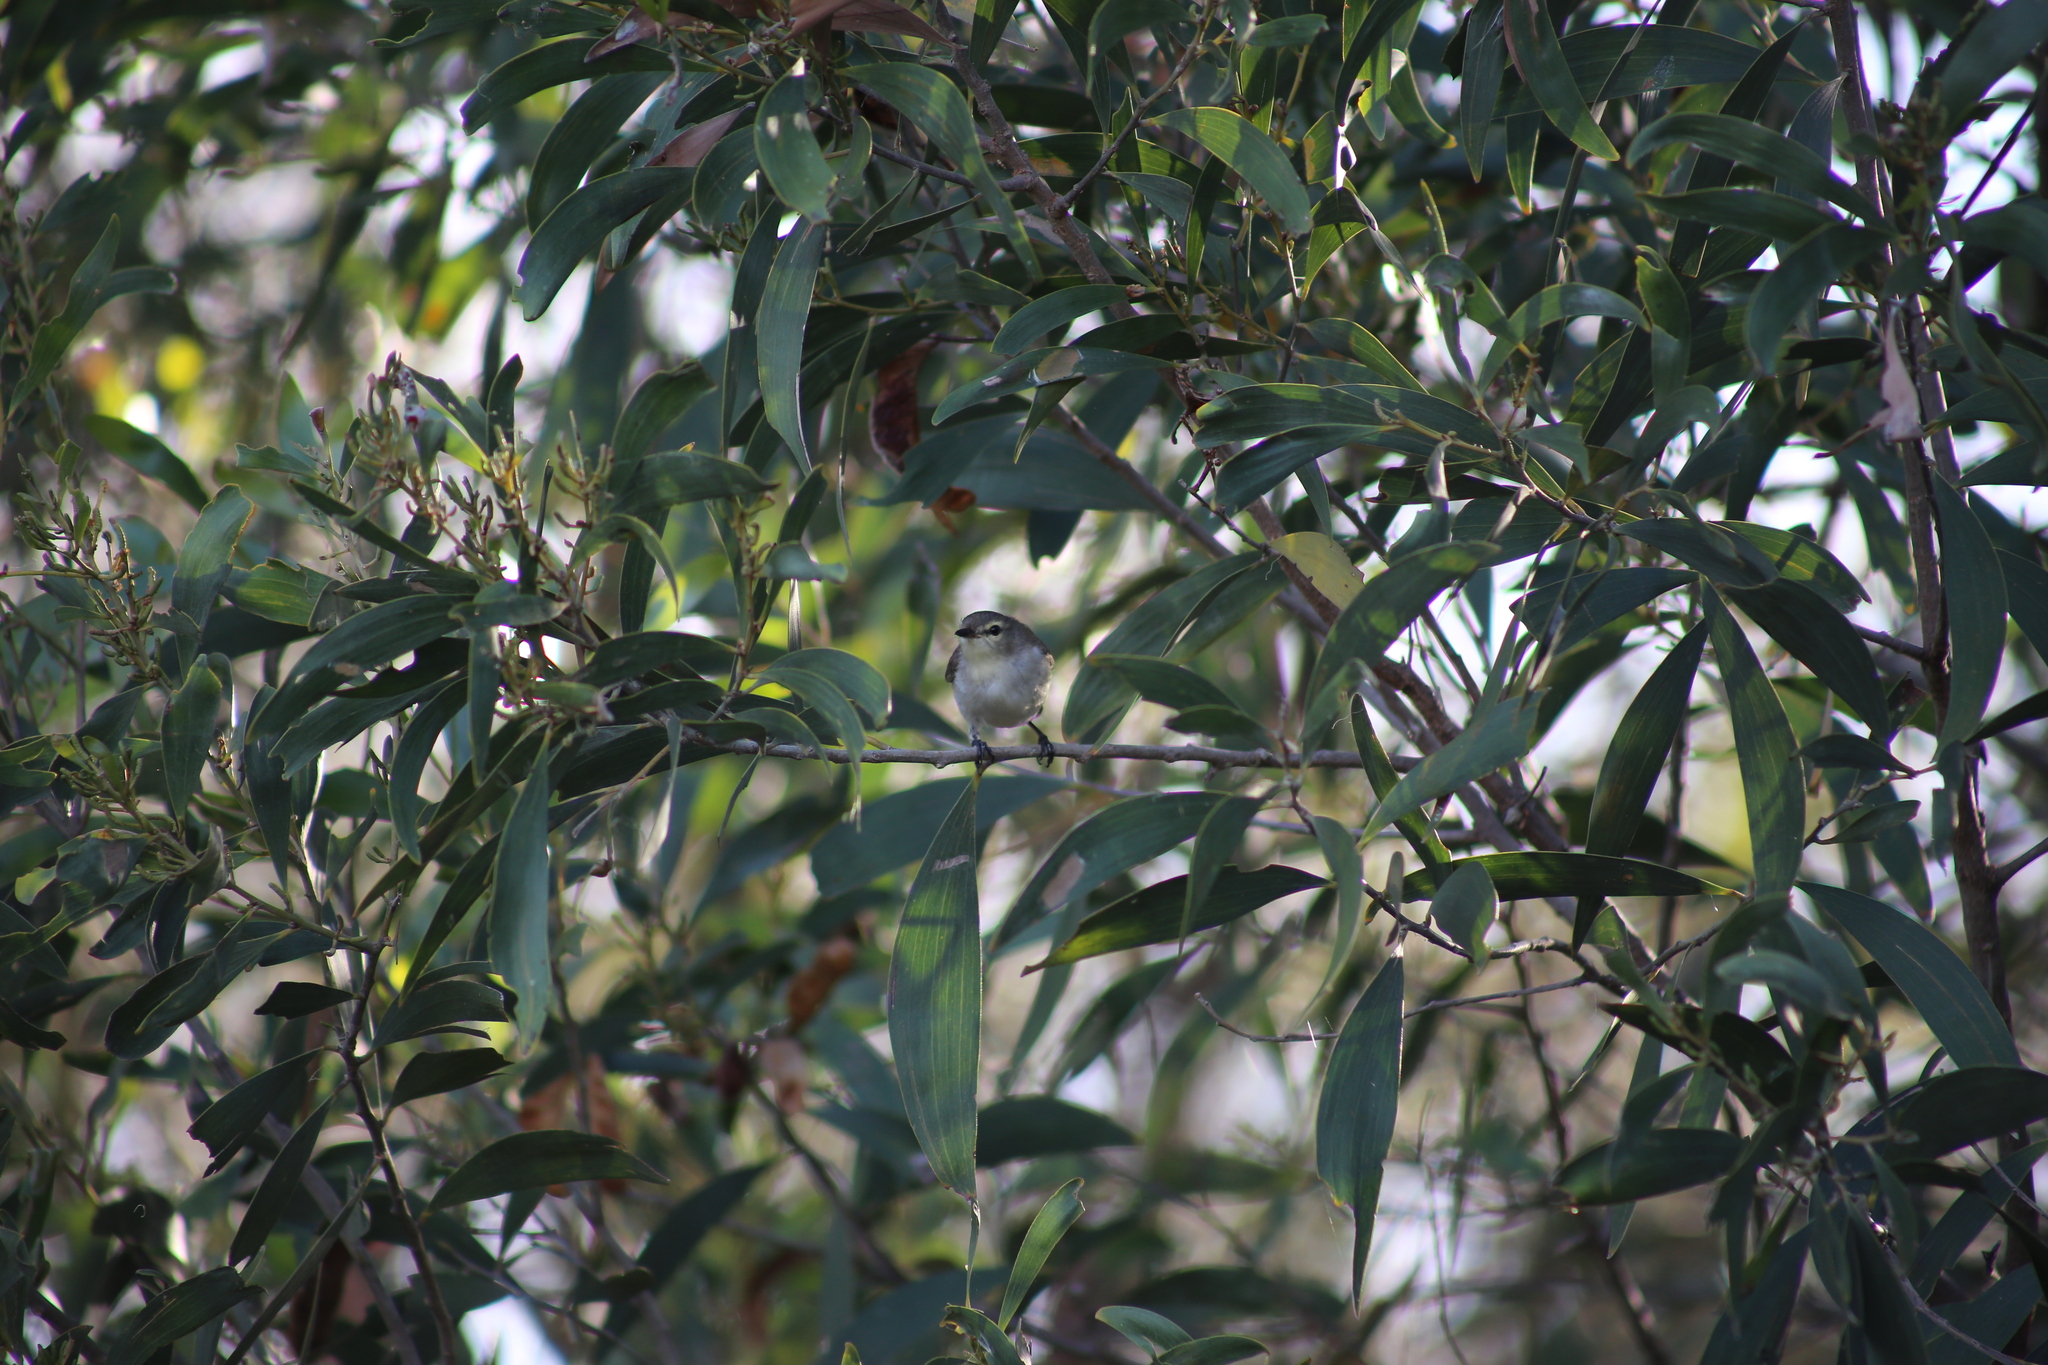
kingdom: Animalia
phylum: Chordata
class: Aves
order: Passeriformes
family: Acanthizidae
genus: Gerygone
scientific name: Gerygone levigaster
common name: Mangrove gerygone
